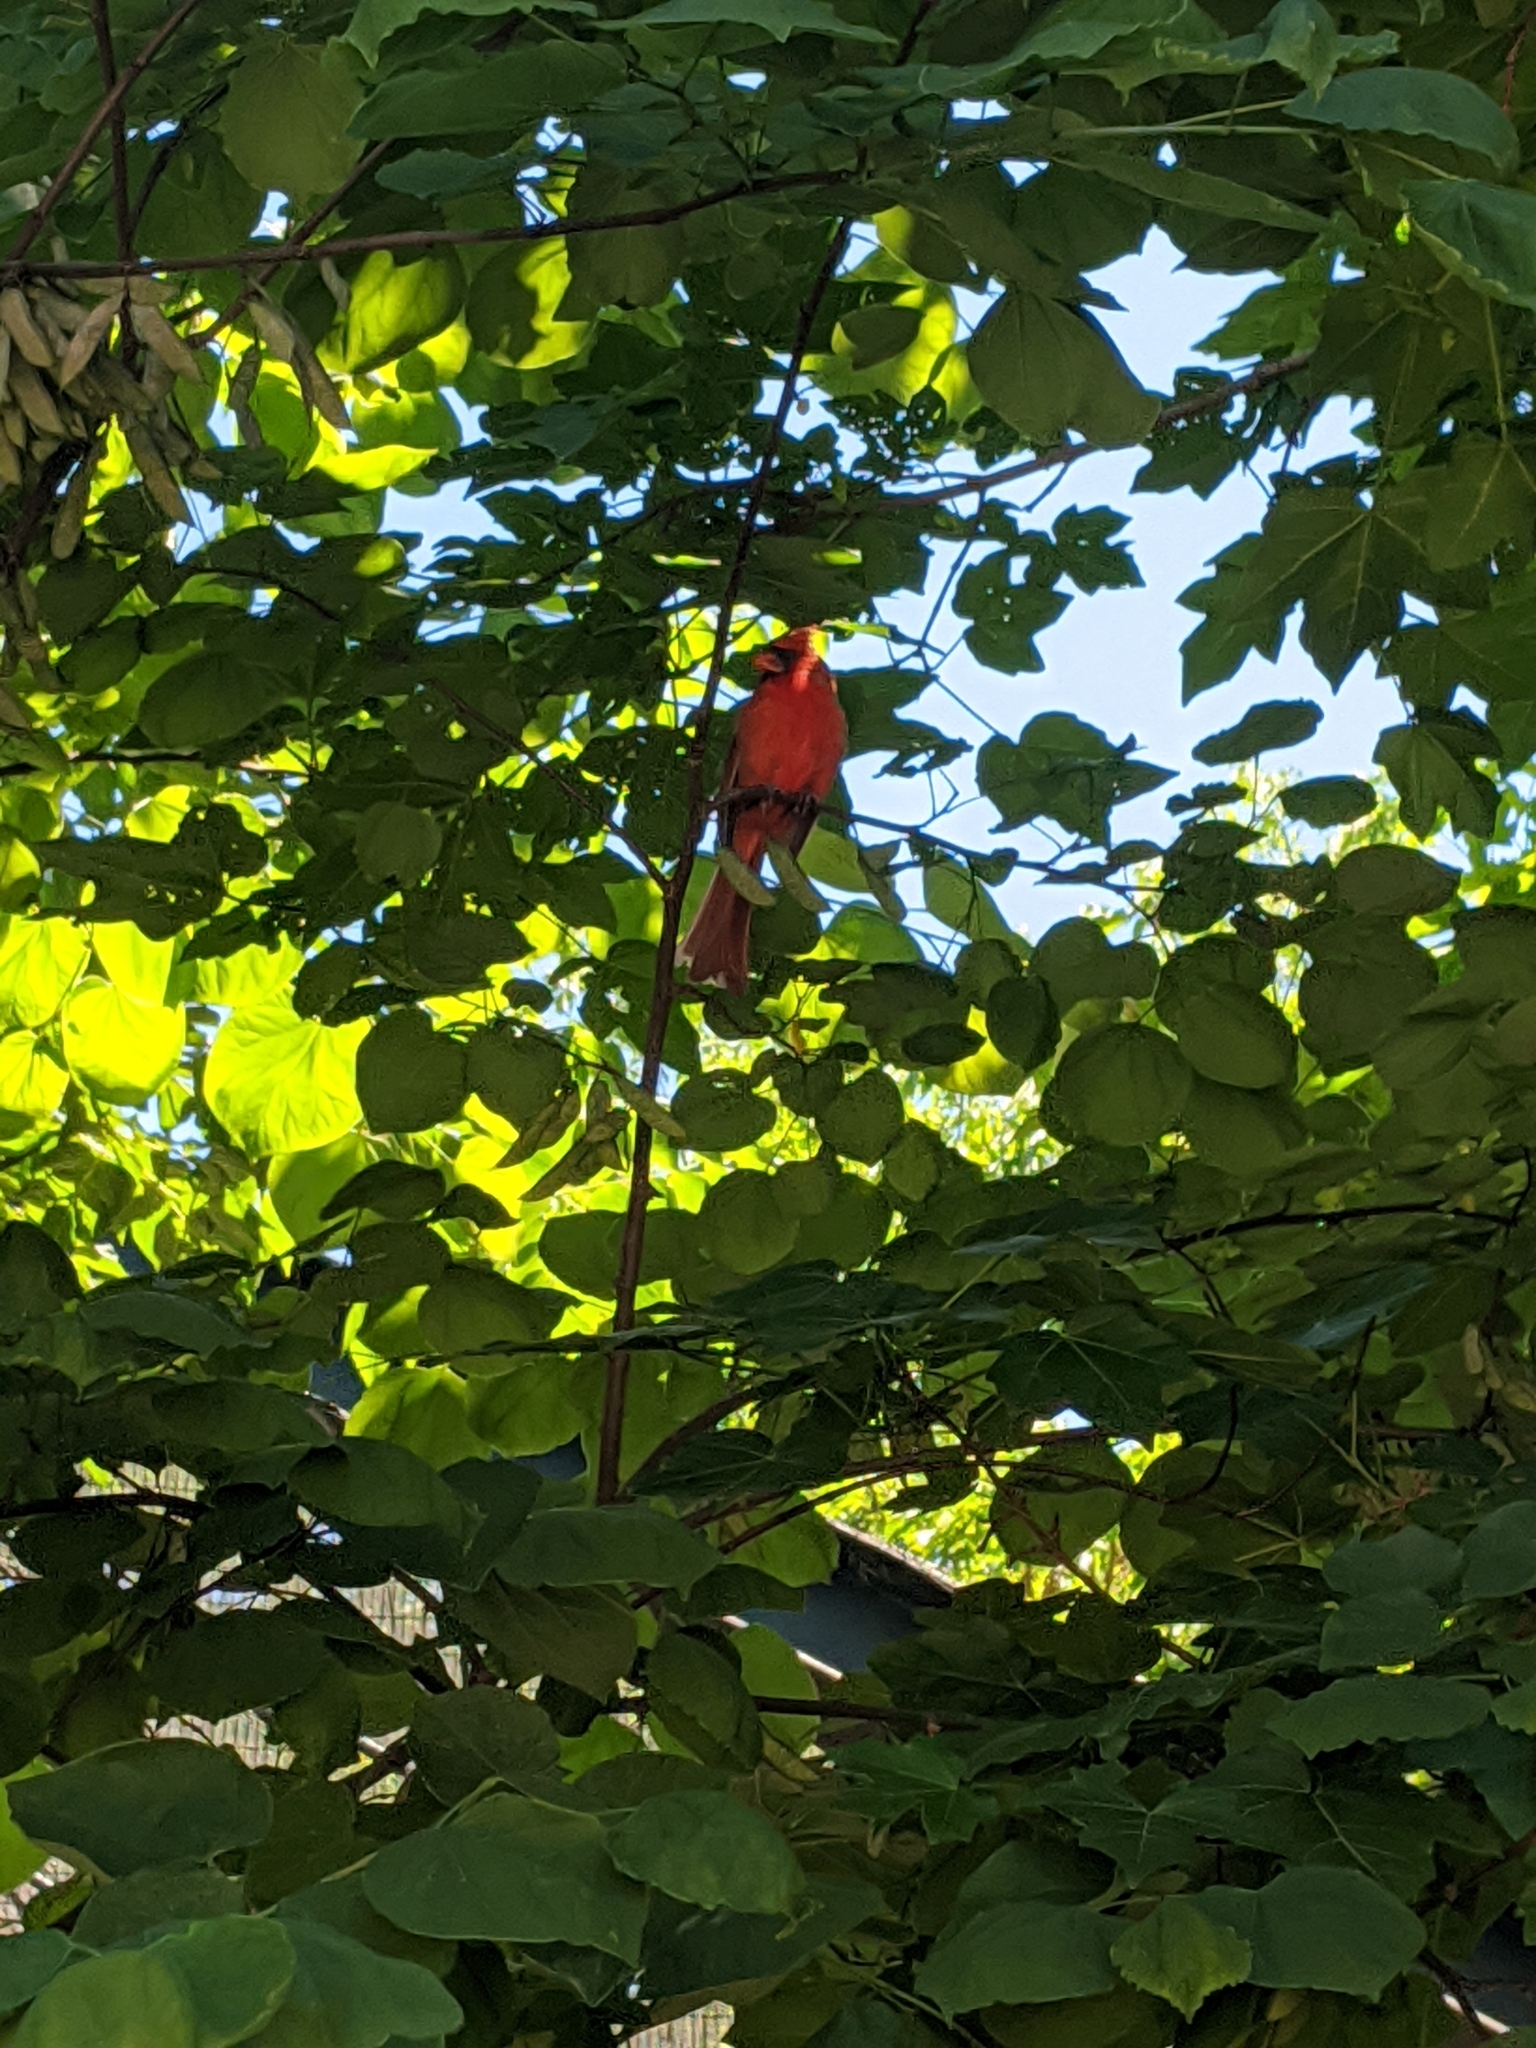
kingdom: Animalia
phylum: Chordata
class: Aves
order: Passeriformes
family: Cardinalidae
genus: Cardinalis
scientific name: Cardinalis cardinalis
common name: Northern cardinal
